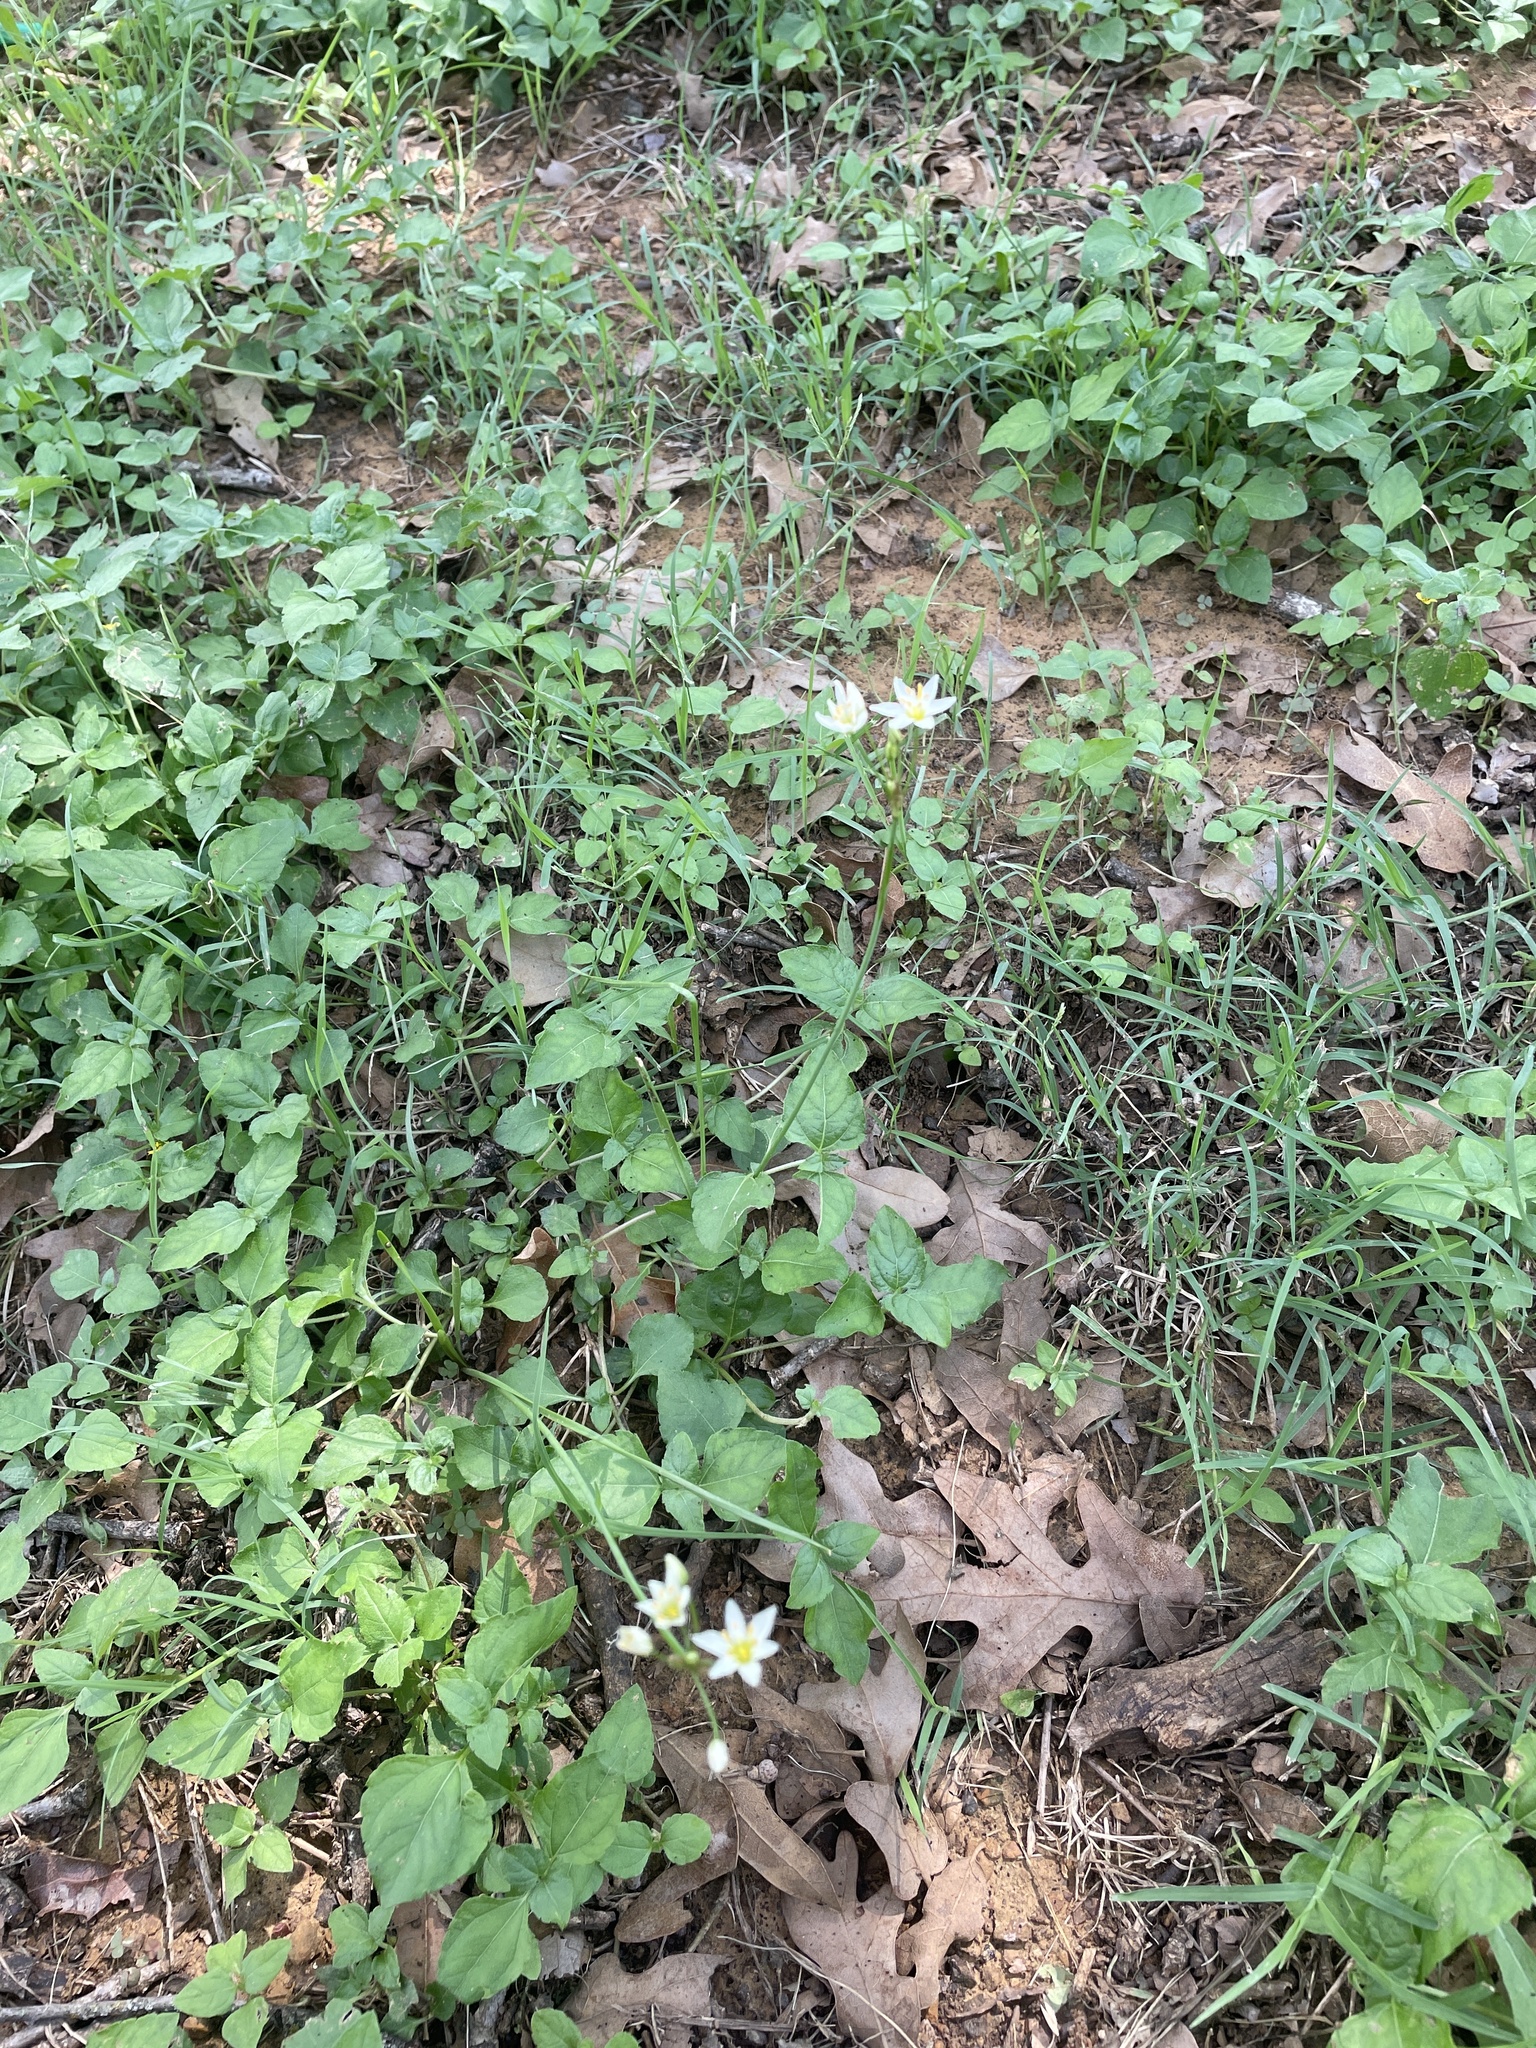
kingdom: Plantae
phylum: Tracheophyta
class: Liliopsida
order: Asparagales
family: Amaryllidaceae
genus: Nothoscordum
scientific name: Nothoscordum bivalve
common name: Crow-poison
